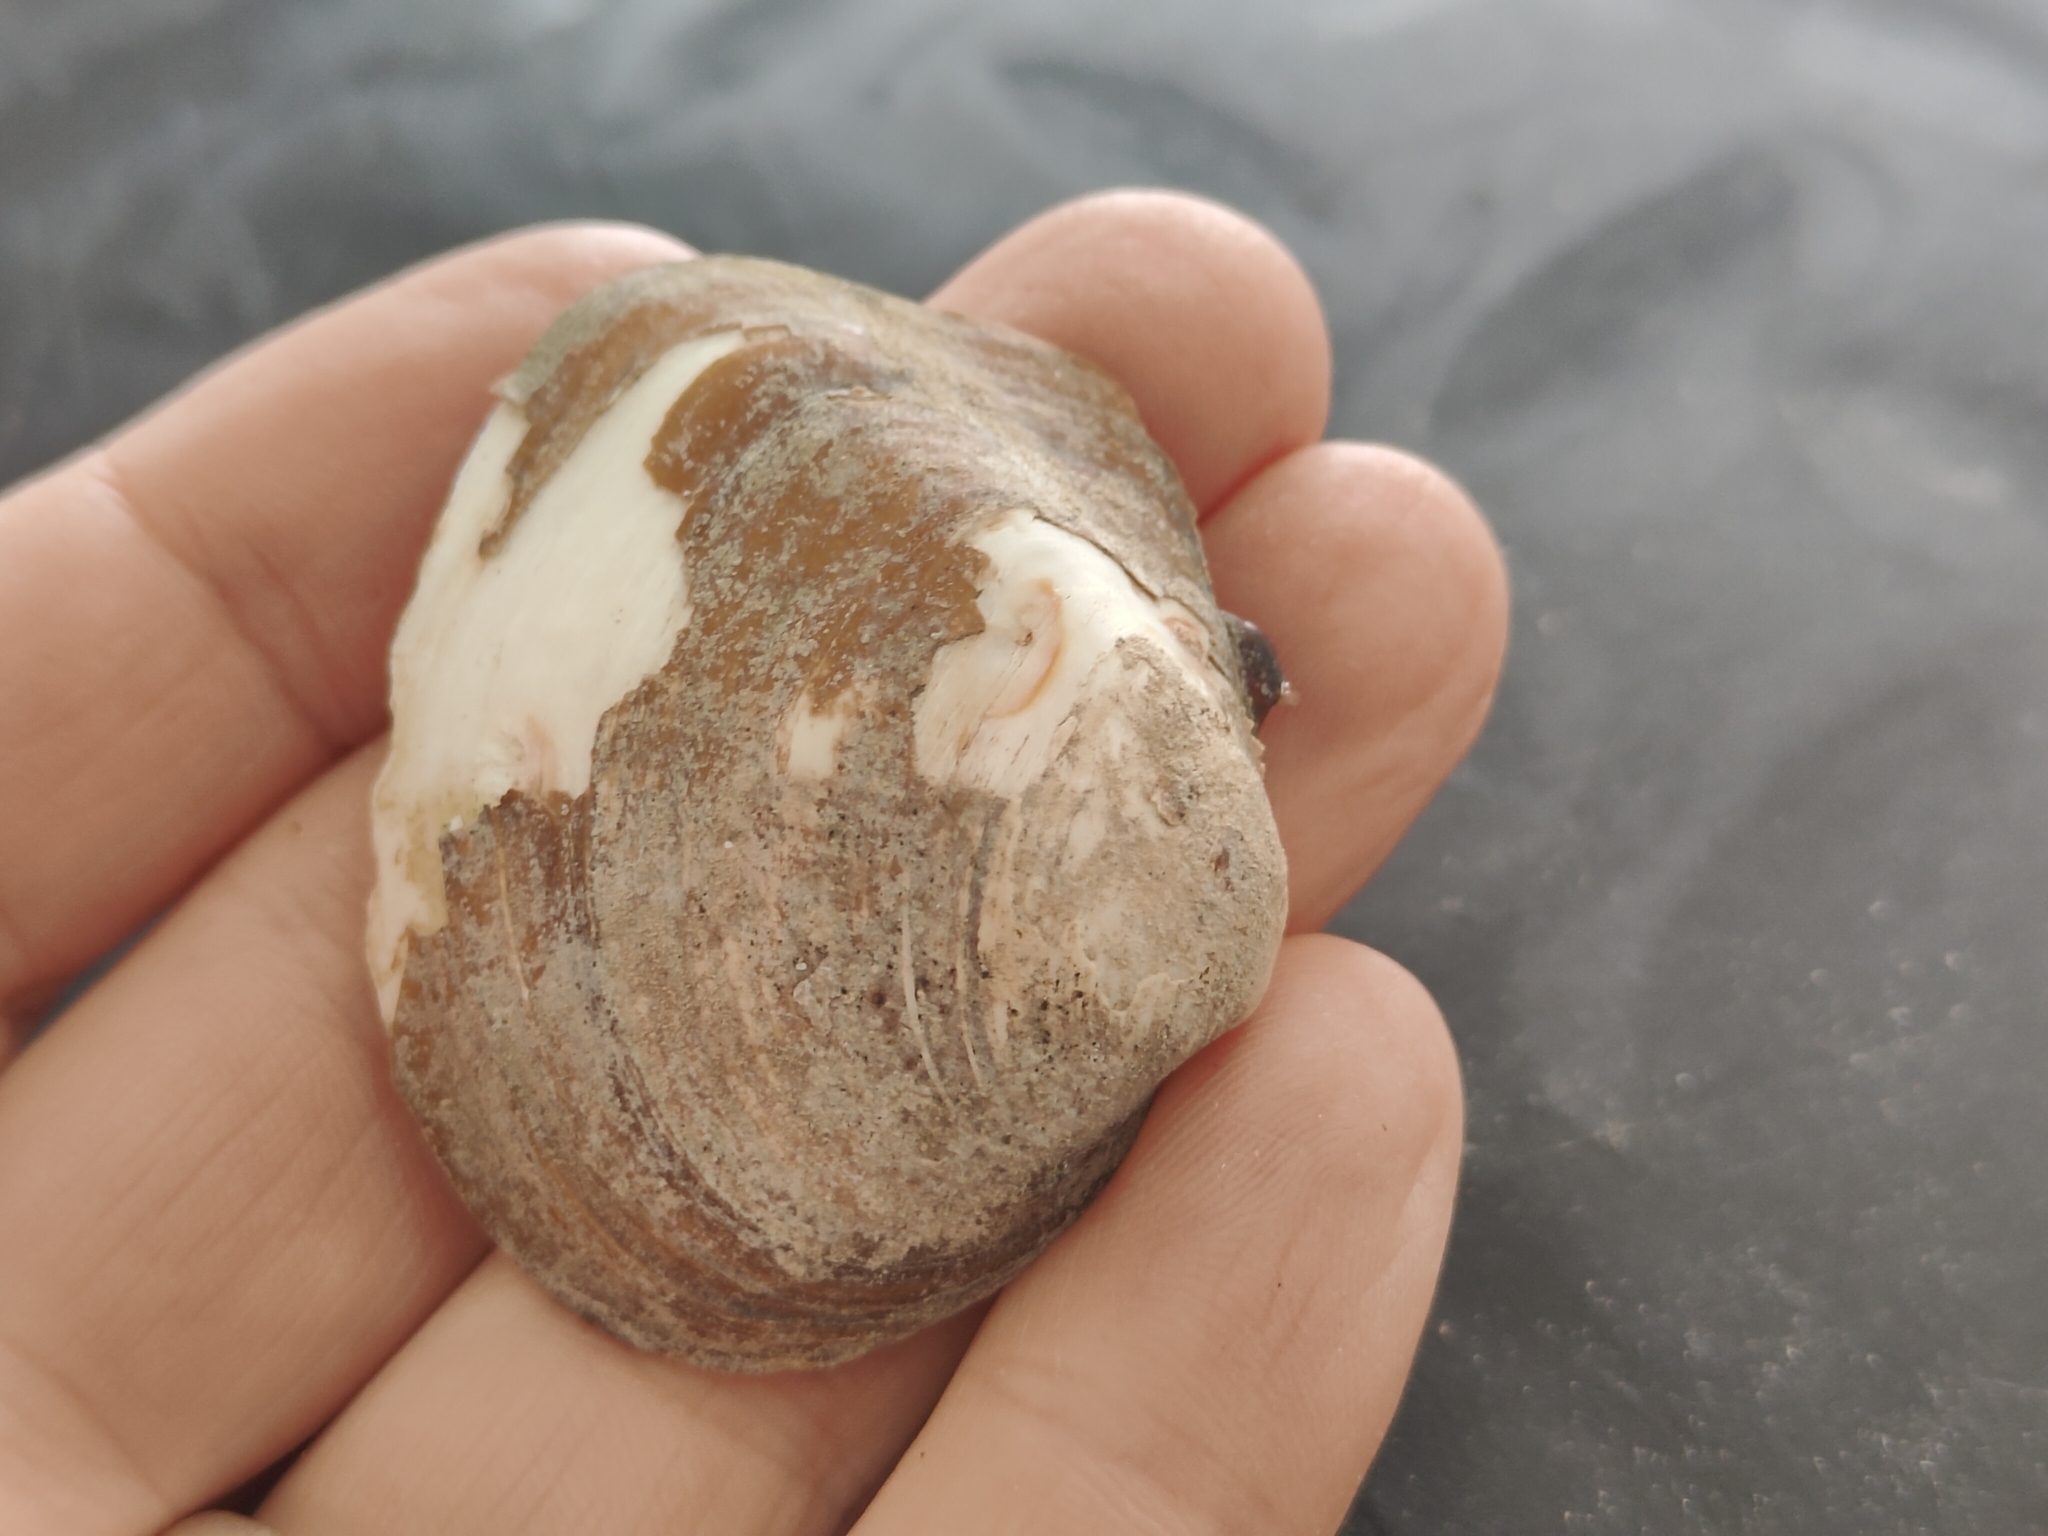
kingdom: Animalia
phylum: Mollusca
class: Bivalvia
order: Unionida
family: Unionidae
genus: Cyclonaias
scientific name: Cyclonaias pustulosa
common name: Pimpleback
